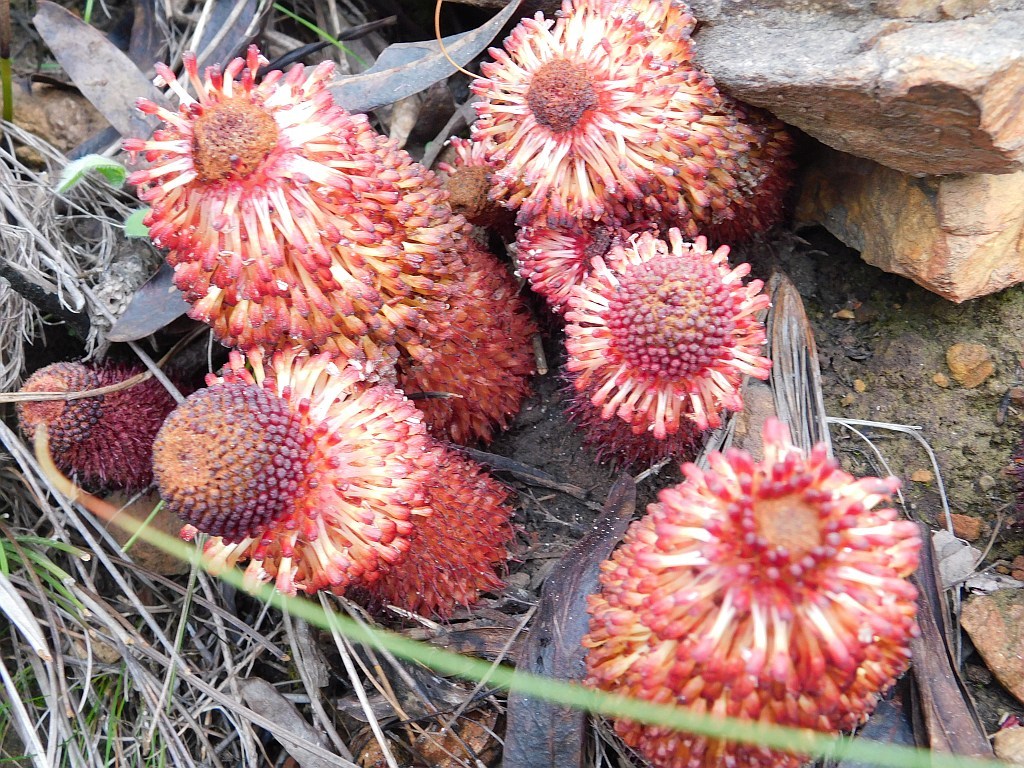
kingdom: Plantae
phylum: Tracheophyta
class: Magnoliopsida
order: Santalales
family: Mystropetalaceae
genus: Mystropetalon
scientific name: Mystropetalon thomii
